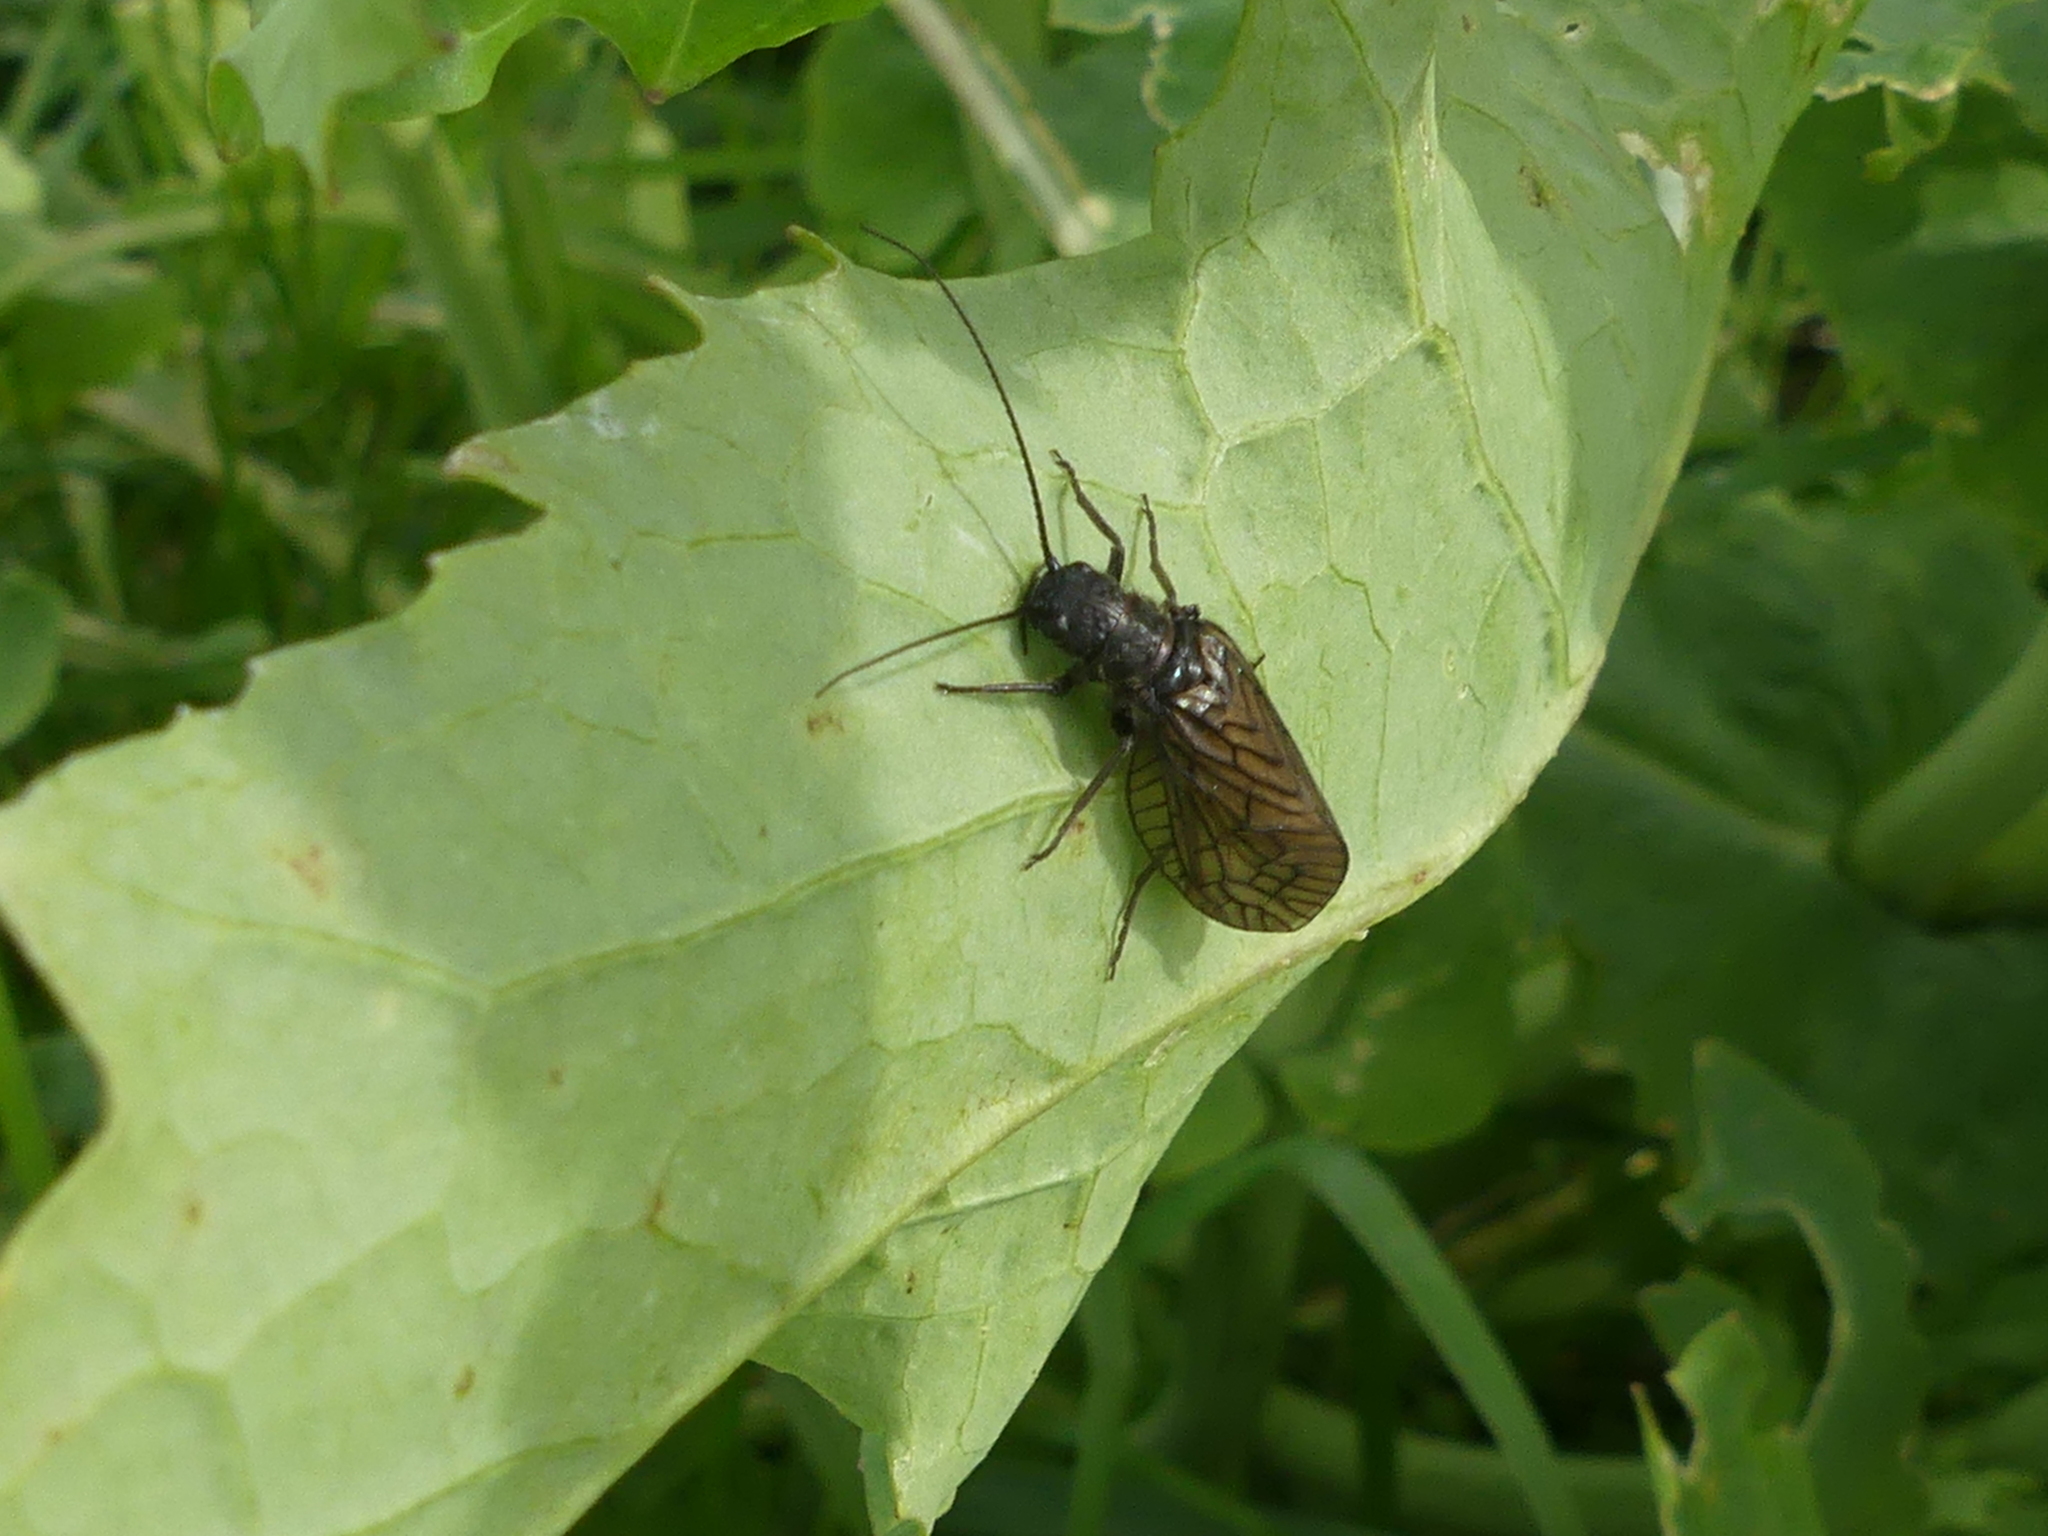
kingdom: Animalia
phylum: Arthropoda
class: Insecta
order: Megaloptera
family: Sialidae
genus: Sialis
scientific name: Sialis
